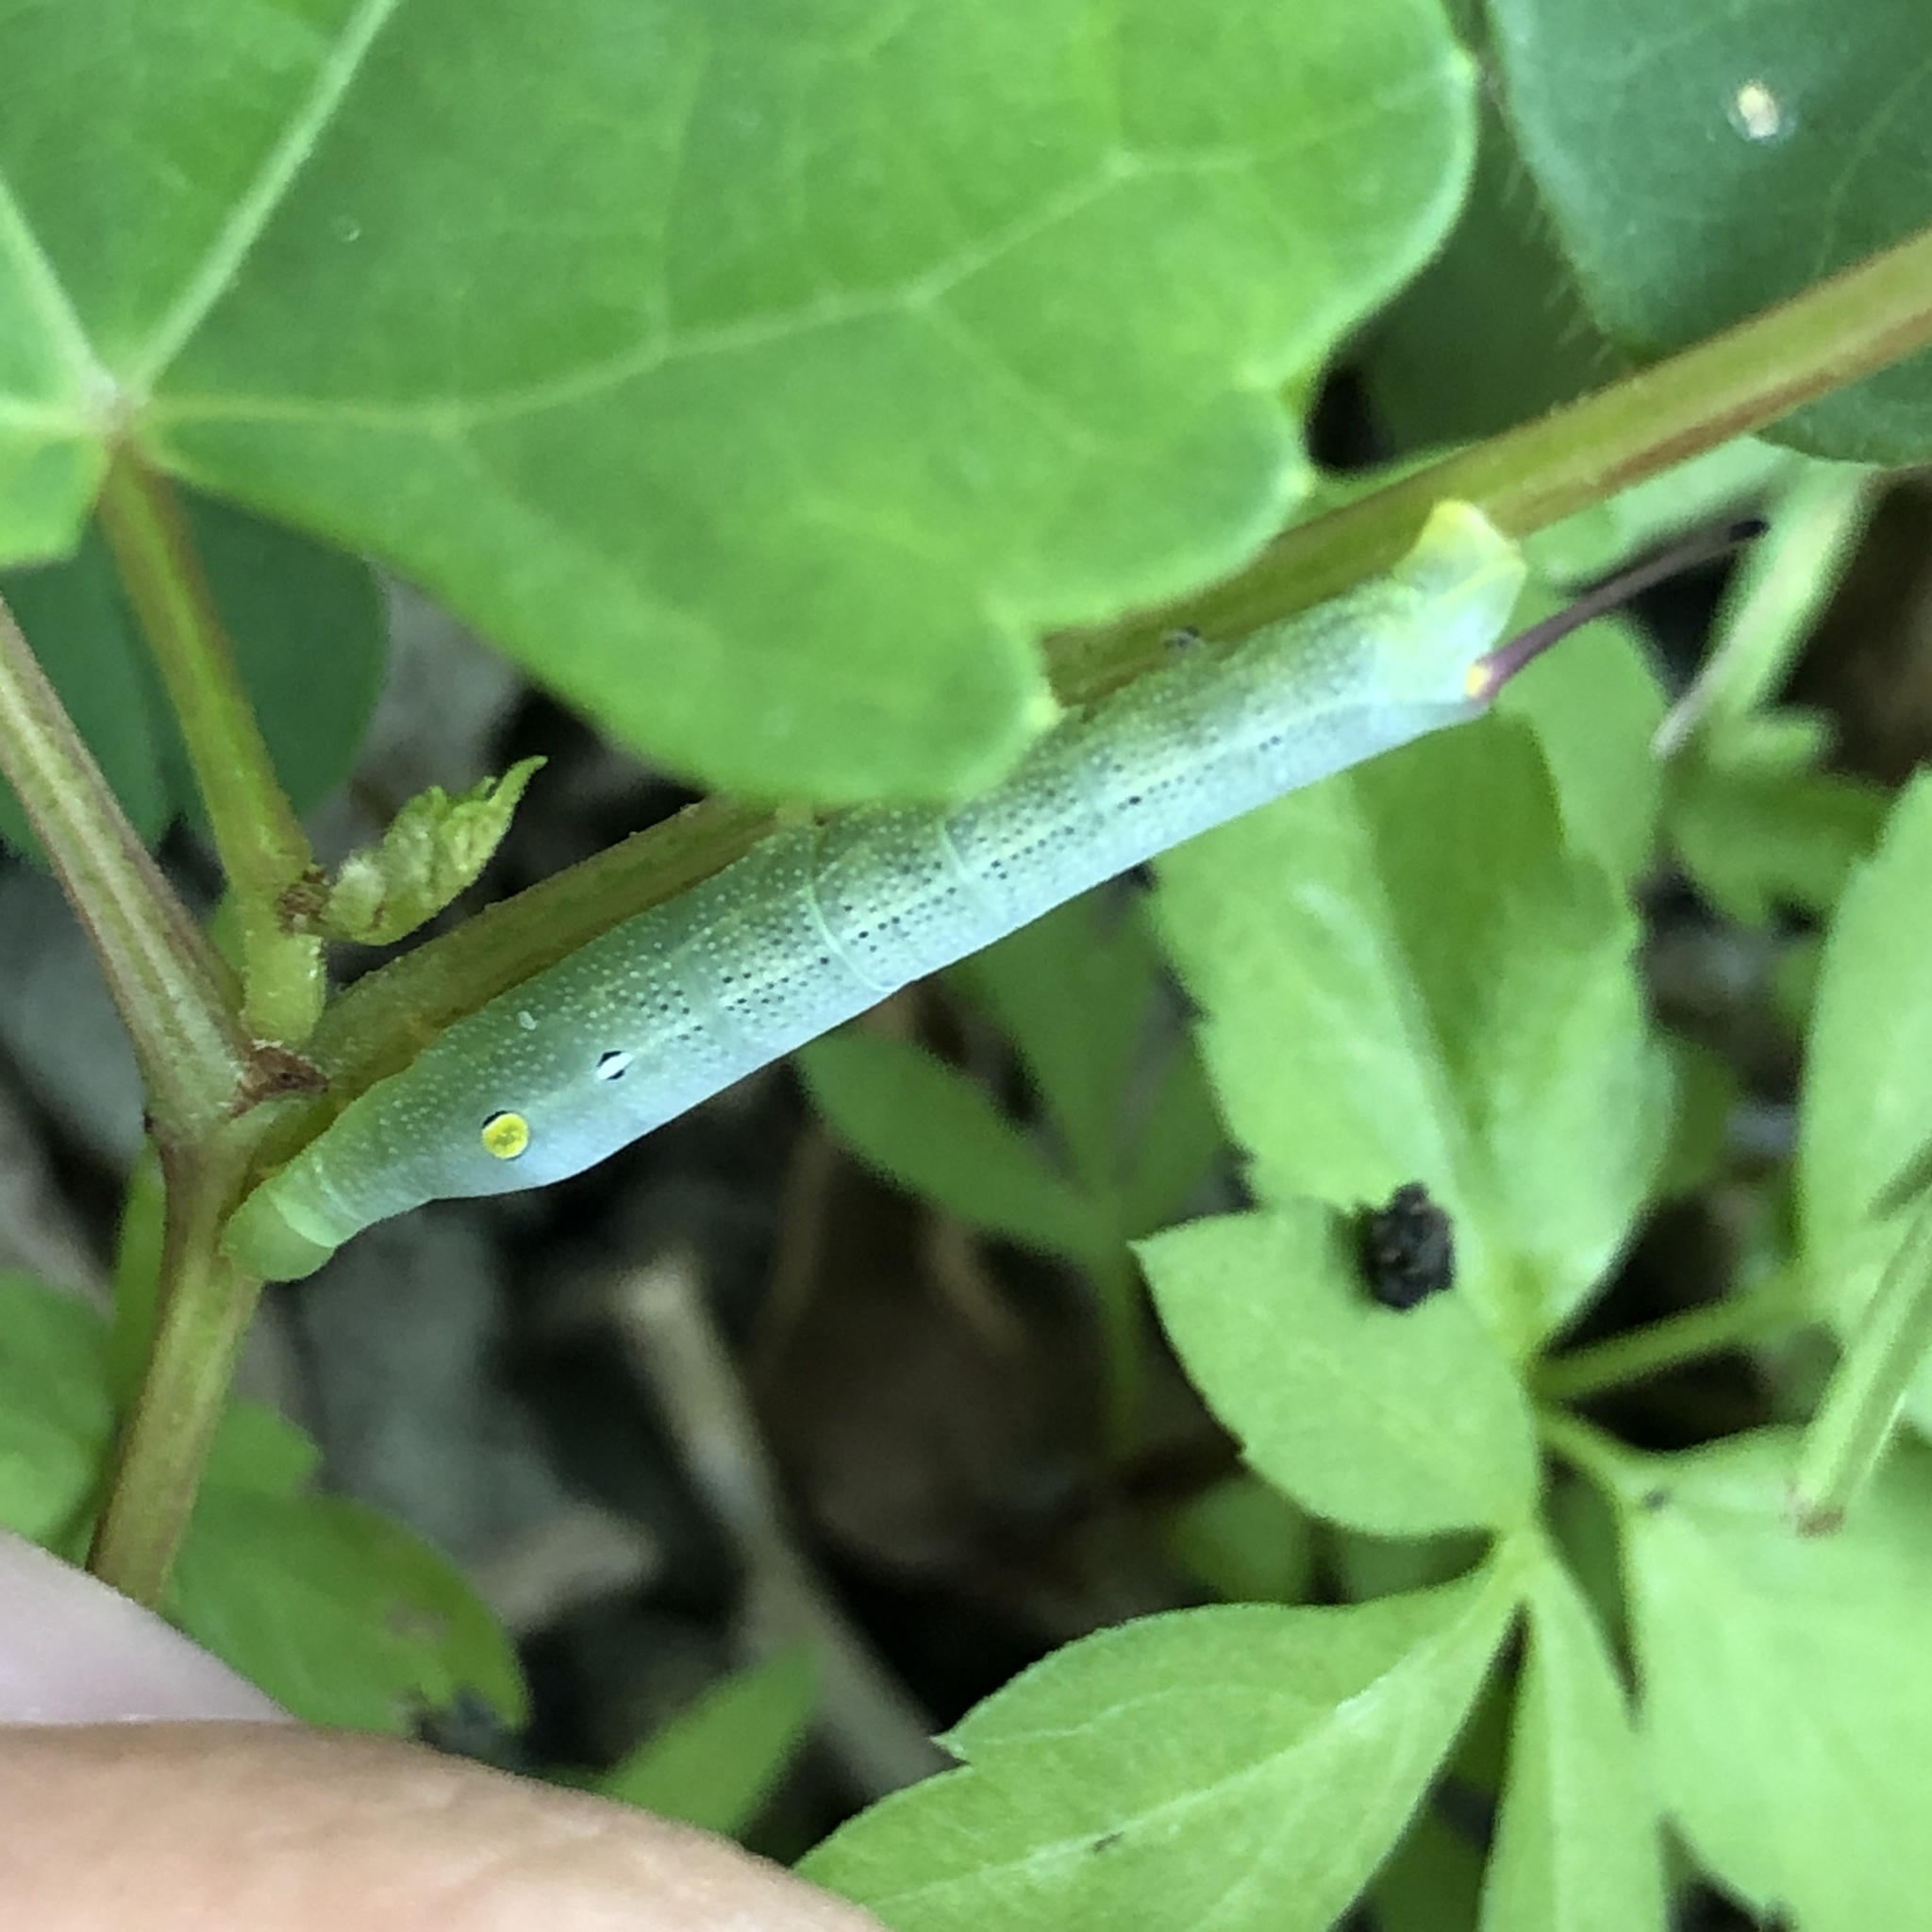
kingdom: Animalia
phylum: Arthropoda
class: Insecta
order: Lepidoptera
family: Sphingidae
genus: Hippotion
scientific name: Hippotion celerio
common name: Silver-striped hawk-moth
